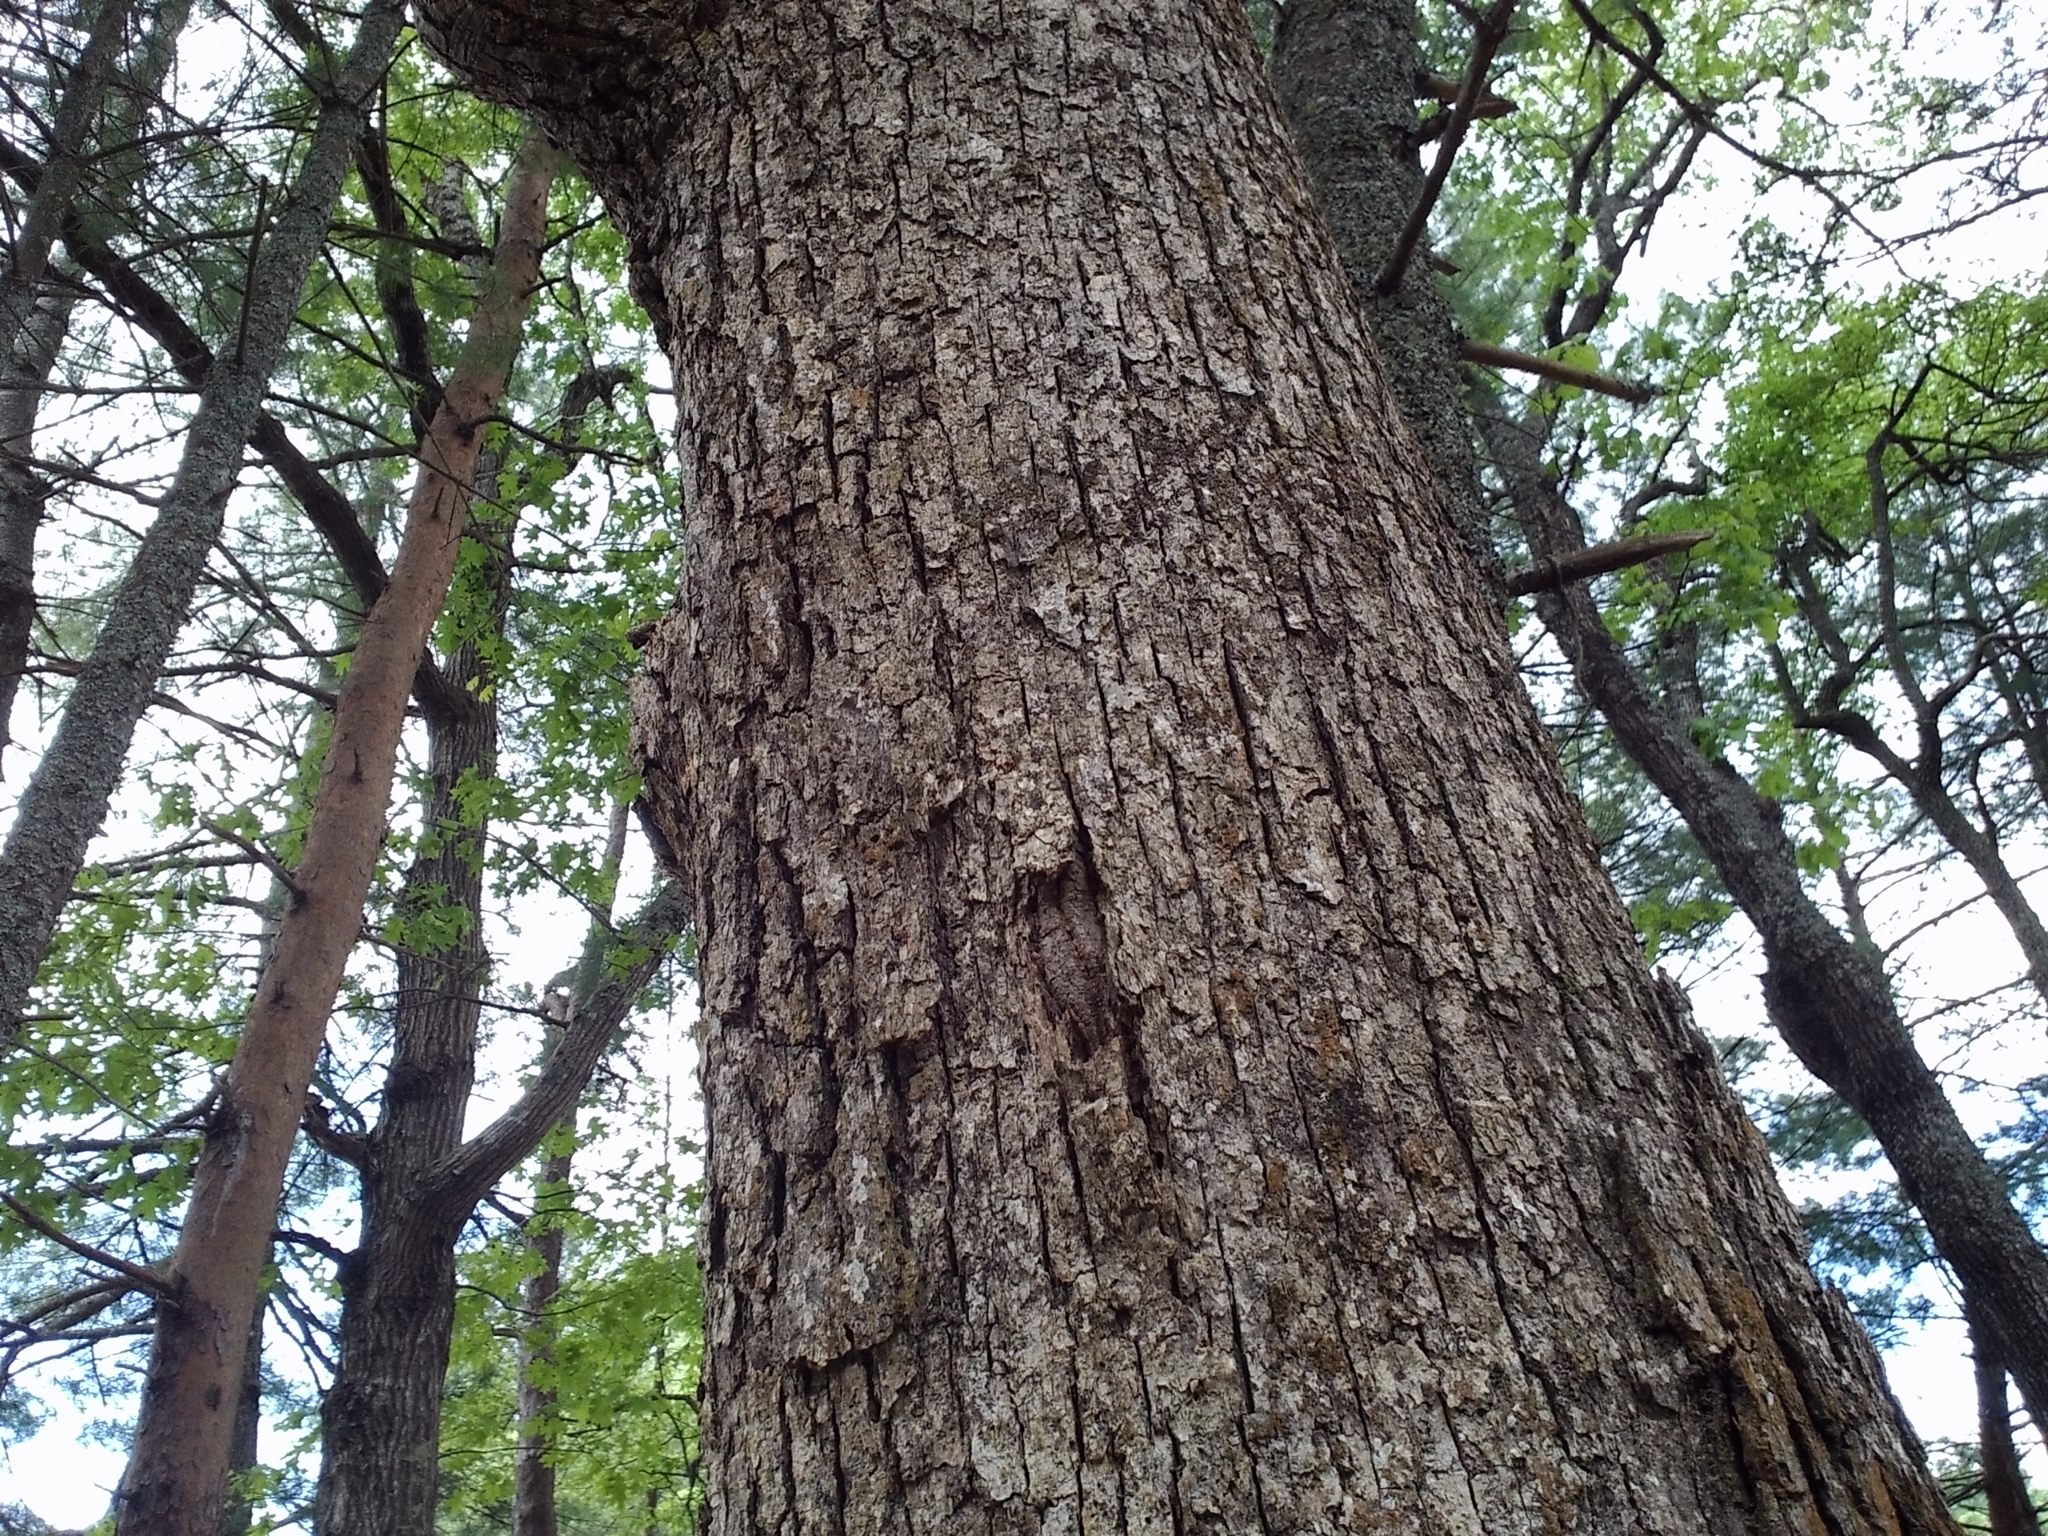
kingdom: Plantae
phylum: Tracheophyta
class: Magnoliopsida
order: Fagales
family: Fagaceae
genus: Quercus
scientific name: Quercus alba
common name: White oak
